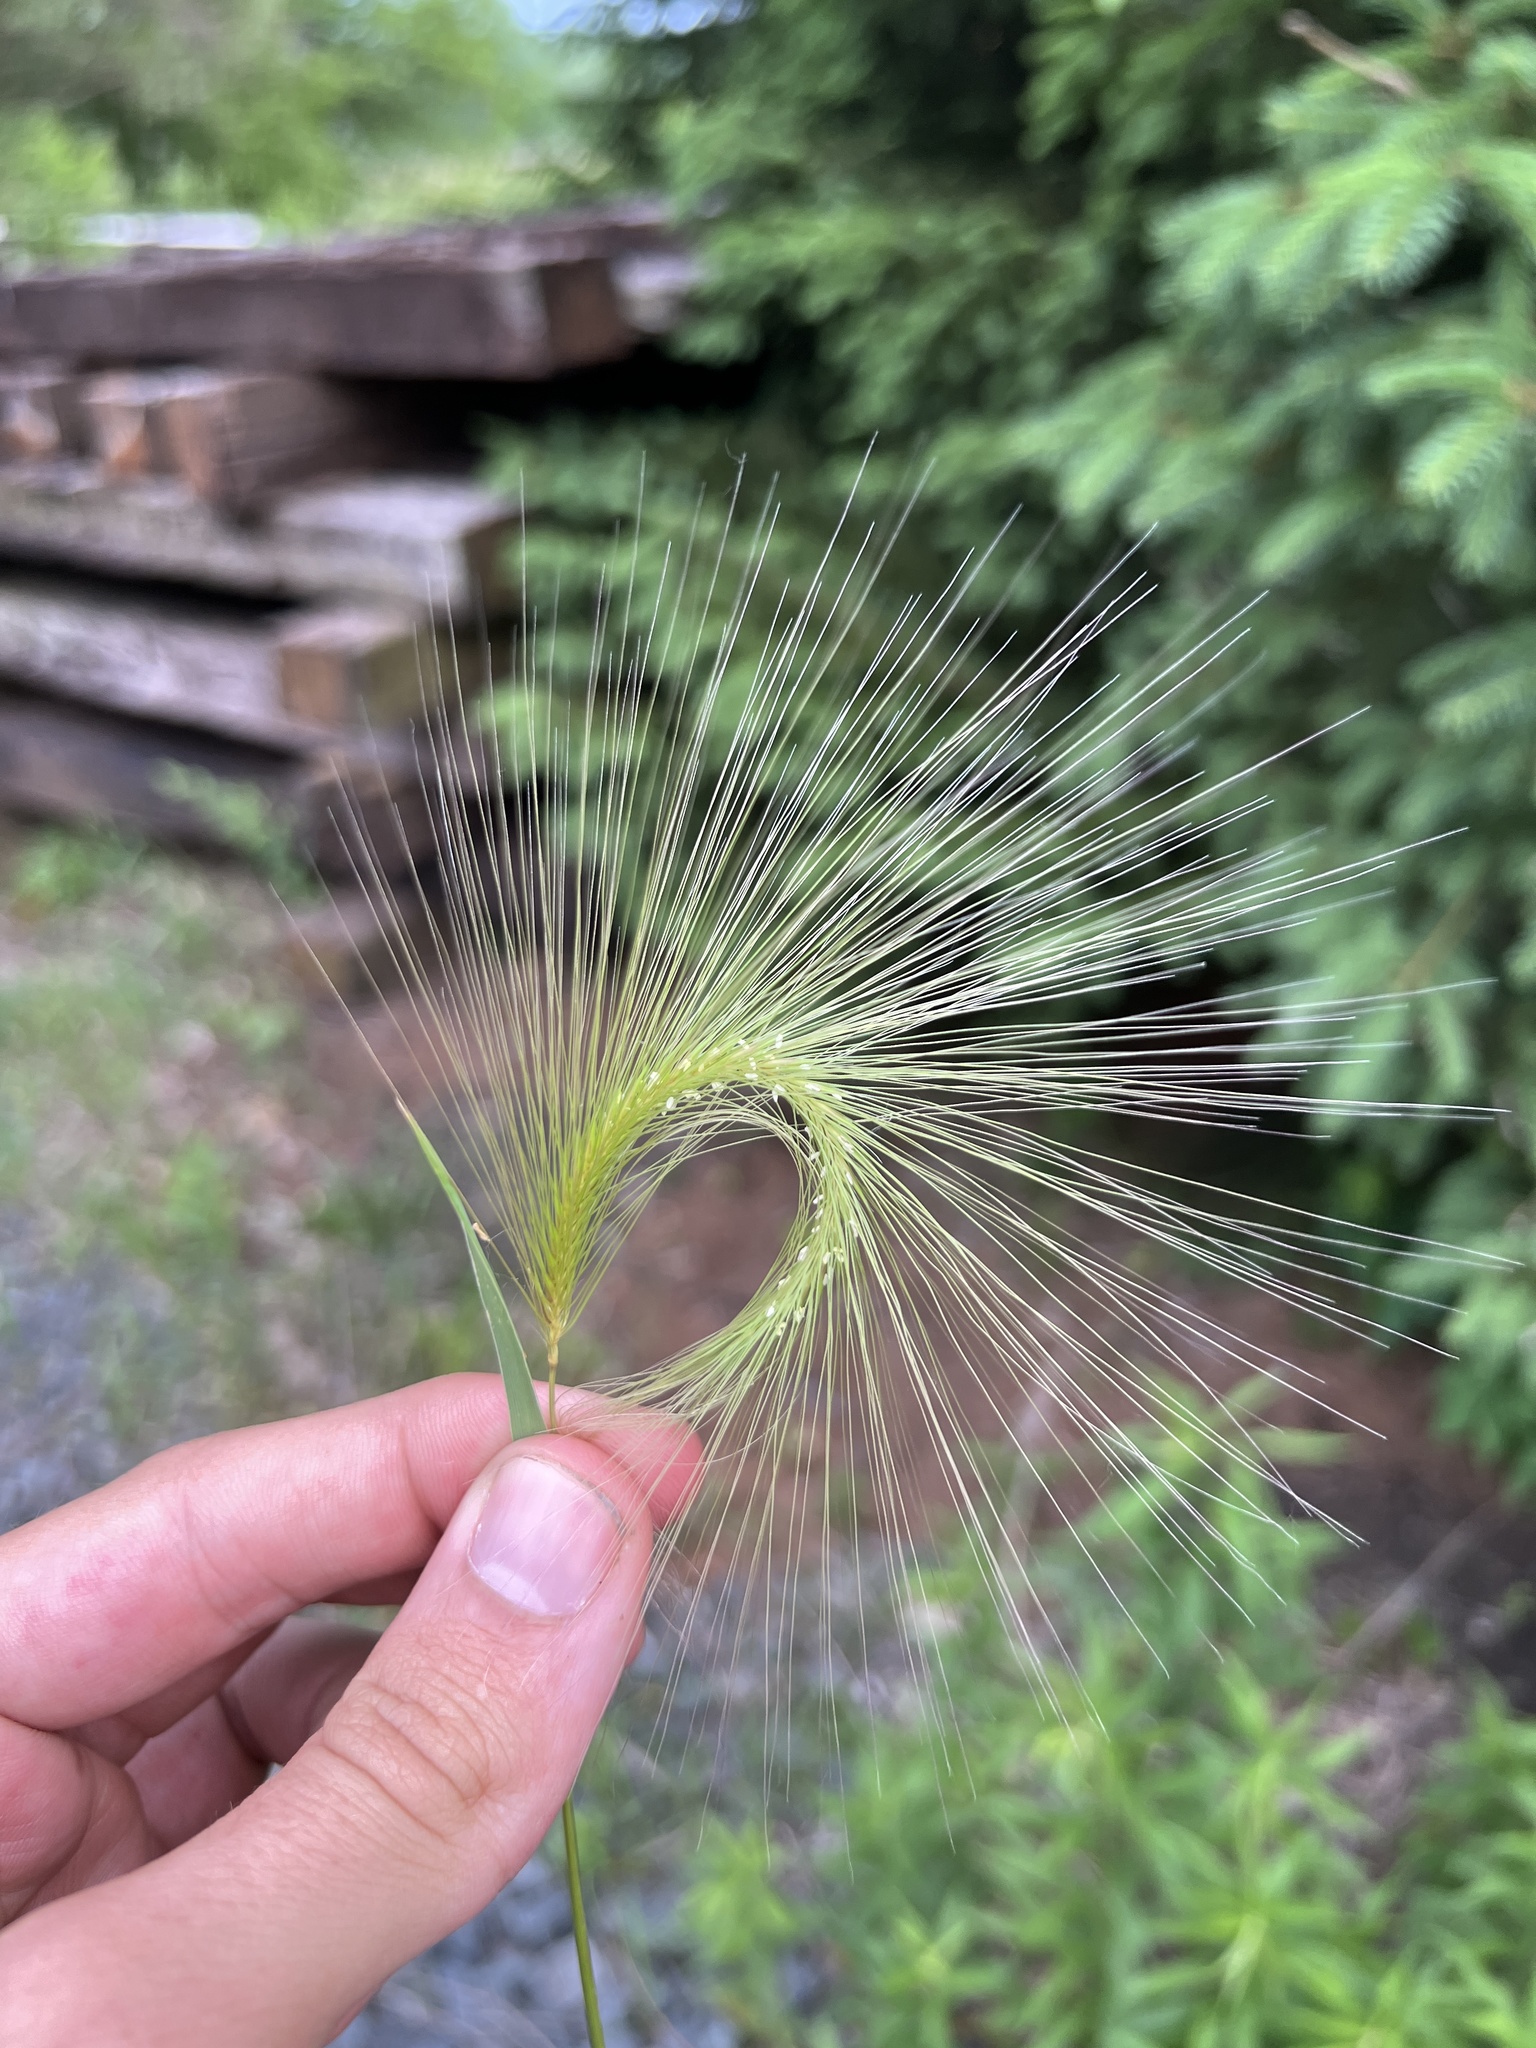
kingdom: Plantae
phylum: Tracheophyta
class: Liliopsida
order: Poales
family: Poaceae
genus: Hordeum
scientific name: Hordeum jubatum
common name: Foxtail barley
